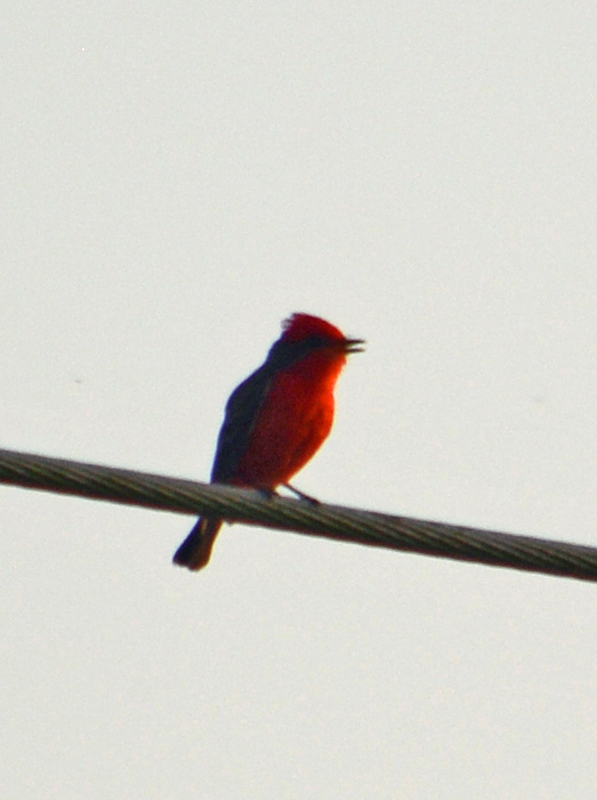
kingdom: Animalia
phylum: Chordata
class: Aves
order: Passeriformes
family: Tyrannidae
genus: Pyrocephalus
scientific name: Pyrocephalus rubinus
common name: Vermilion flycatcher
